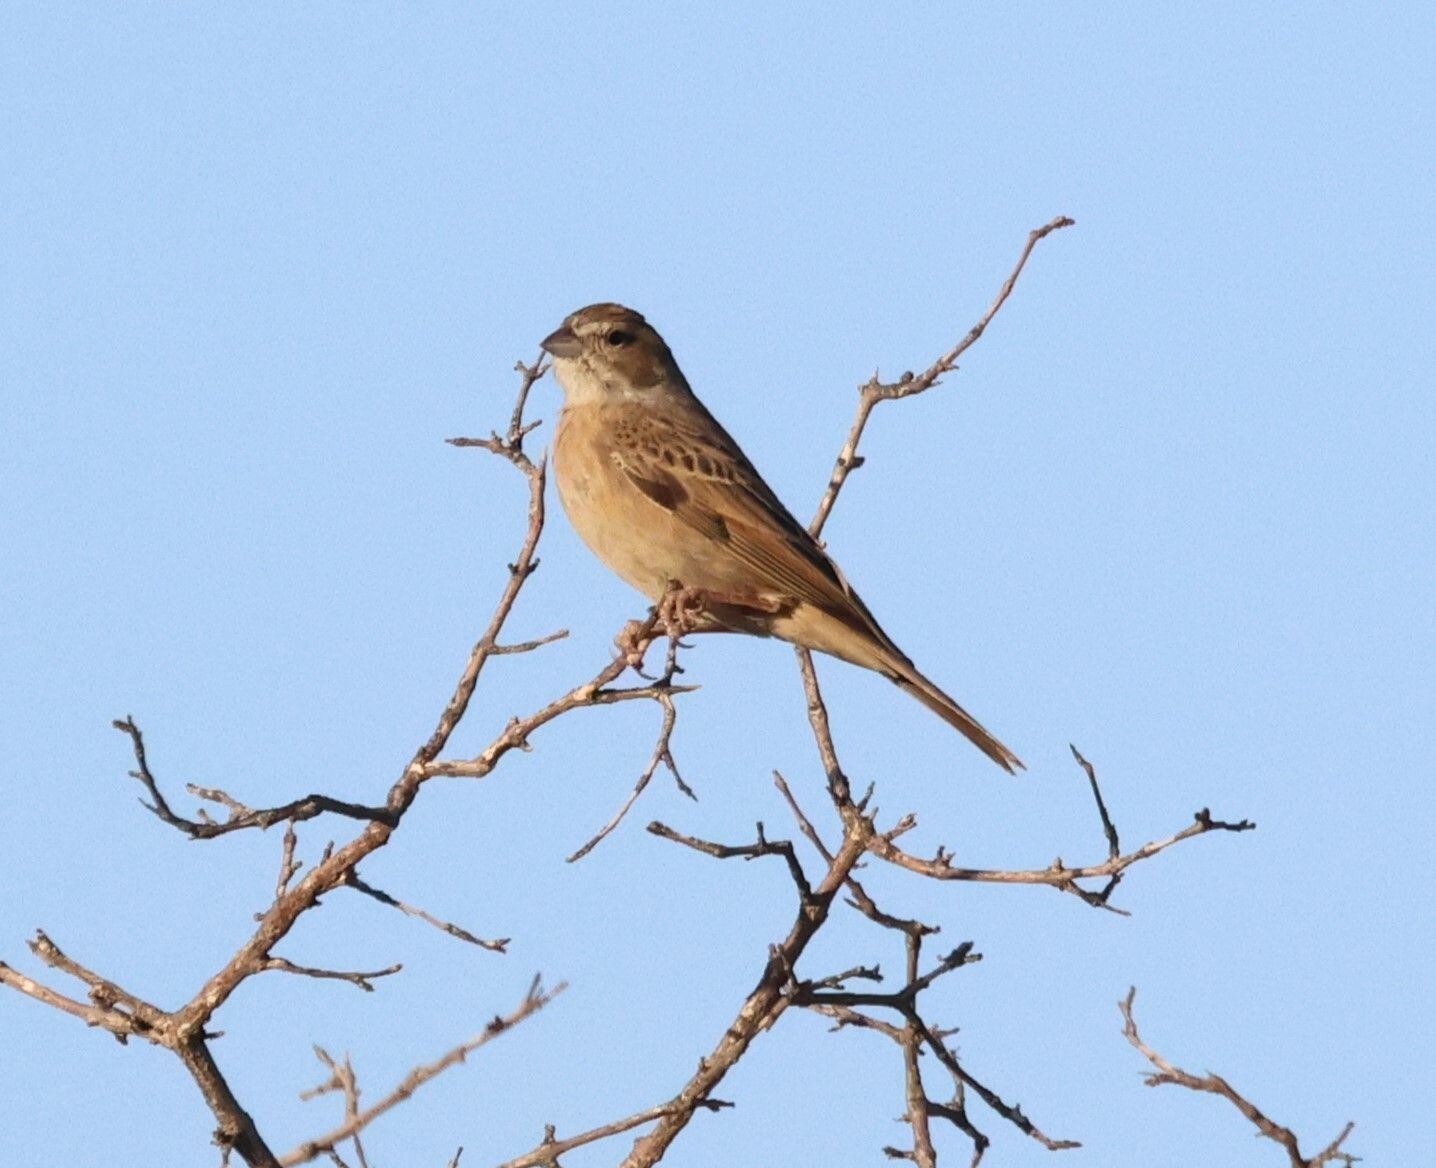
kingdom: Animalia
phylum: Chordata
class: Aves
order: Passeriformes
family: Emberizidae
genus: Emberiza
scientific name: Emberiza impetuani
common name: Lark-like bunting
